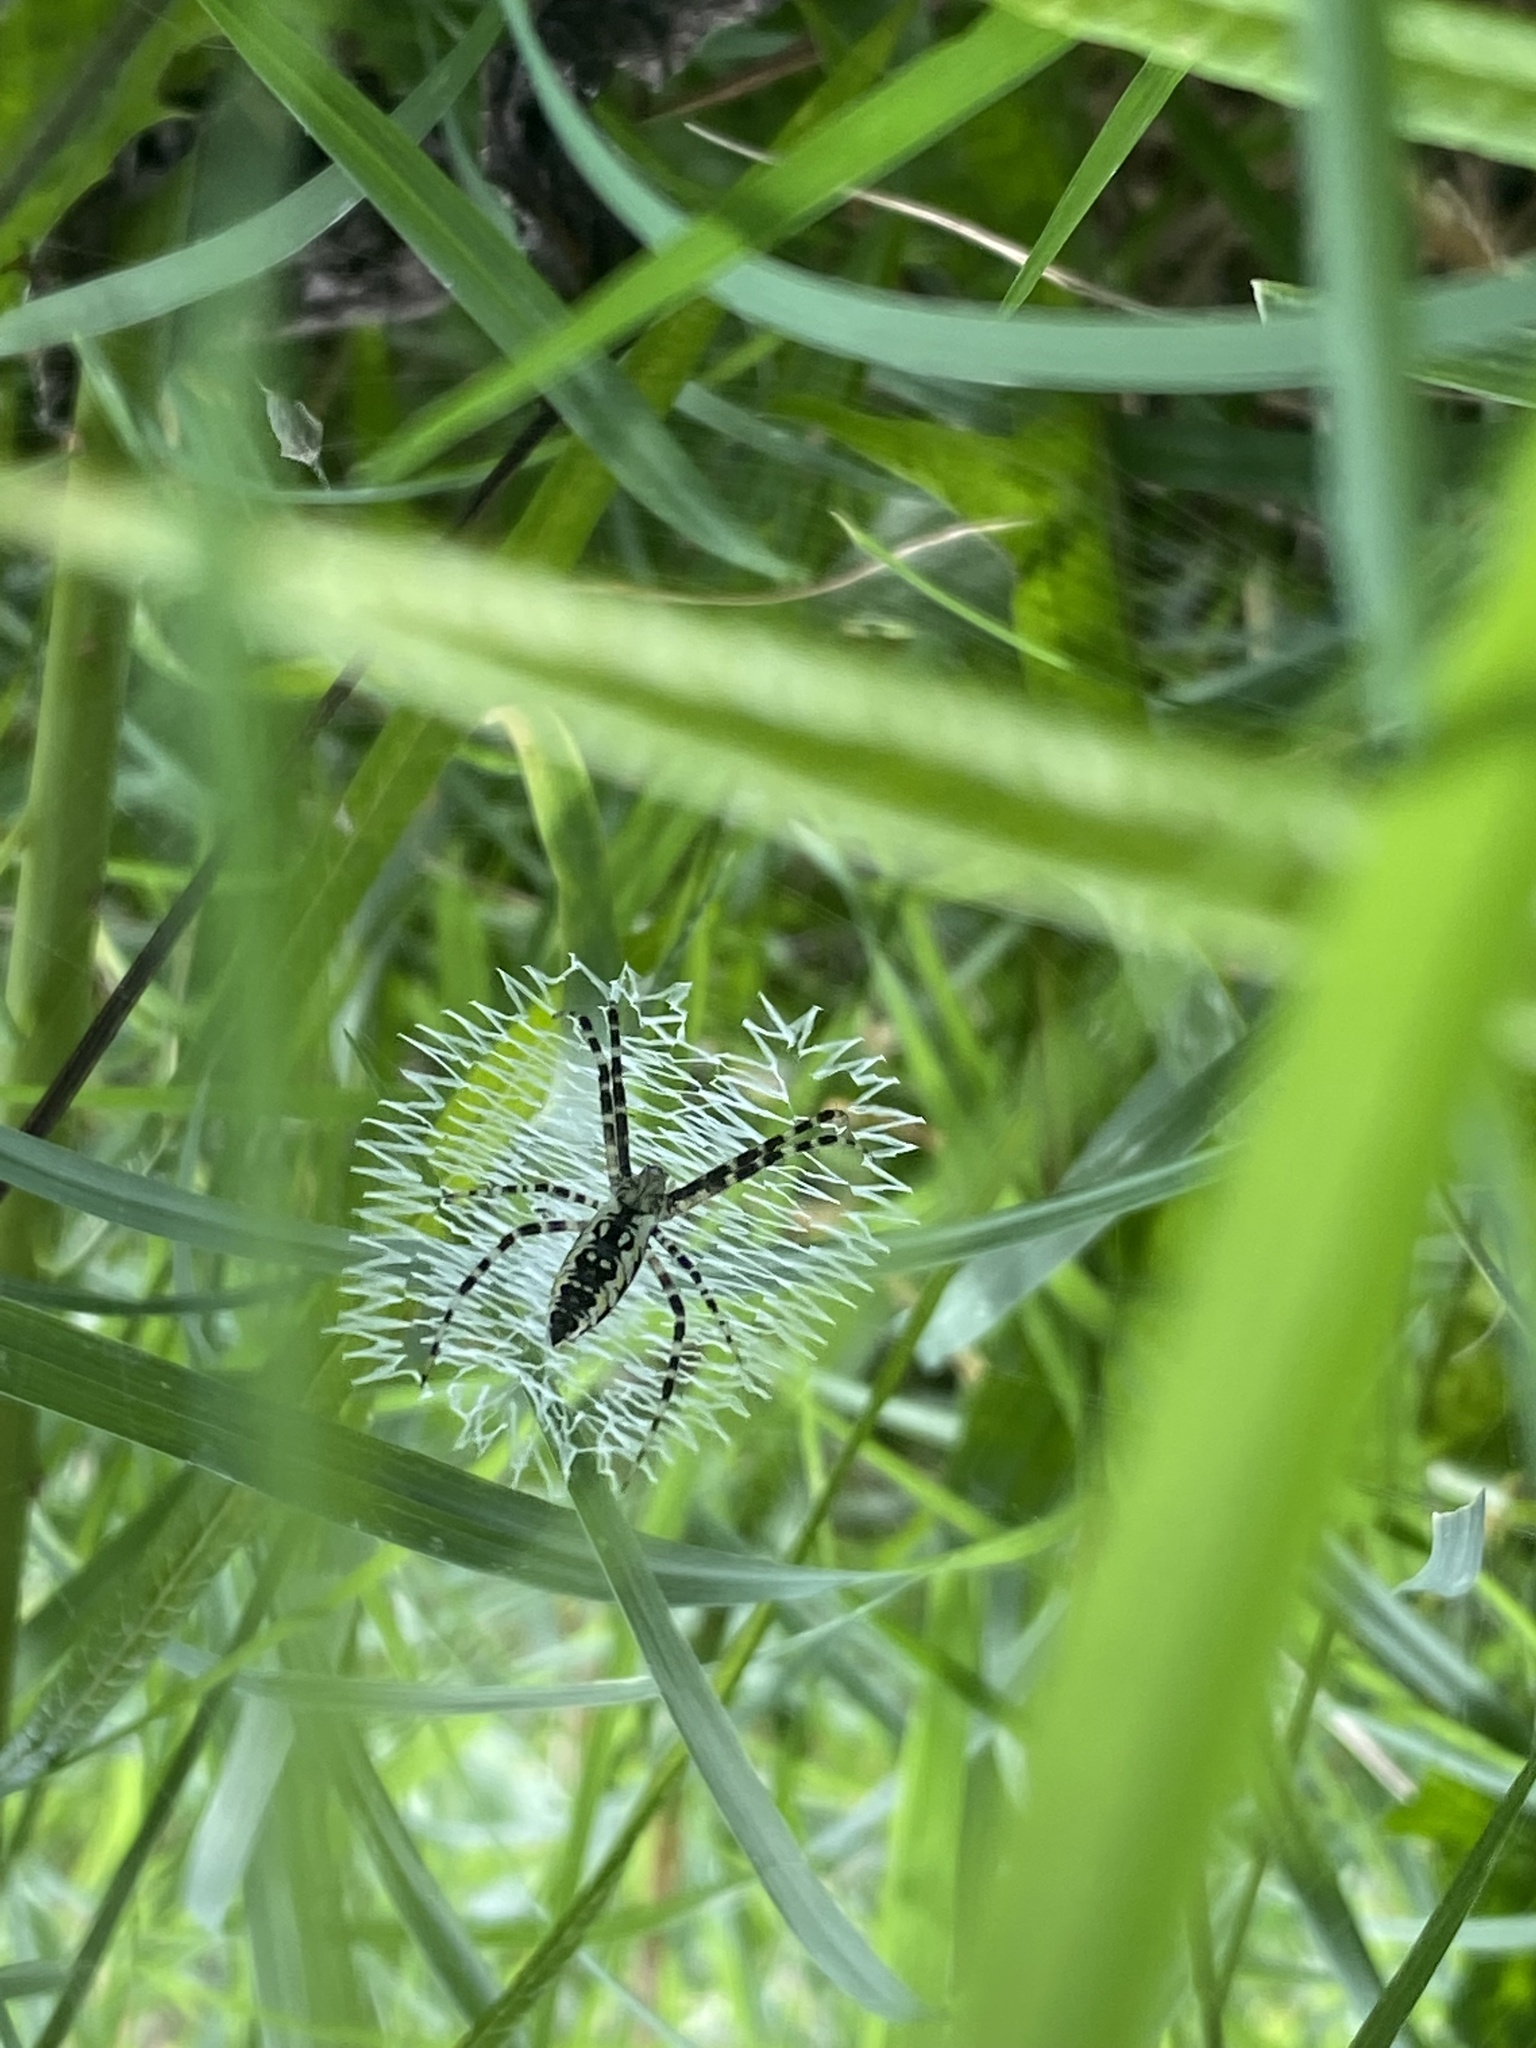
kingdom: Animalia
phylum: Arthropoda
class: Arachnida
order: Araneae
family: Araneidae
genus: Argiope
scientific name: Argiope aurantia
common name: Orb weavers
